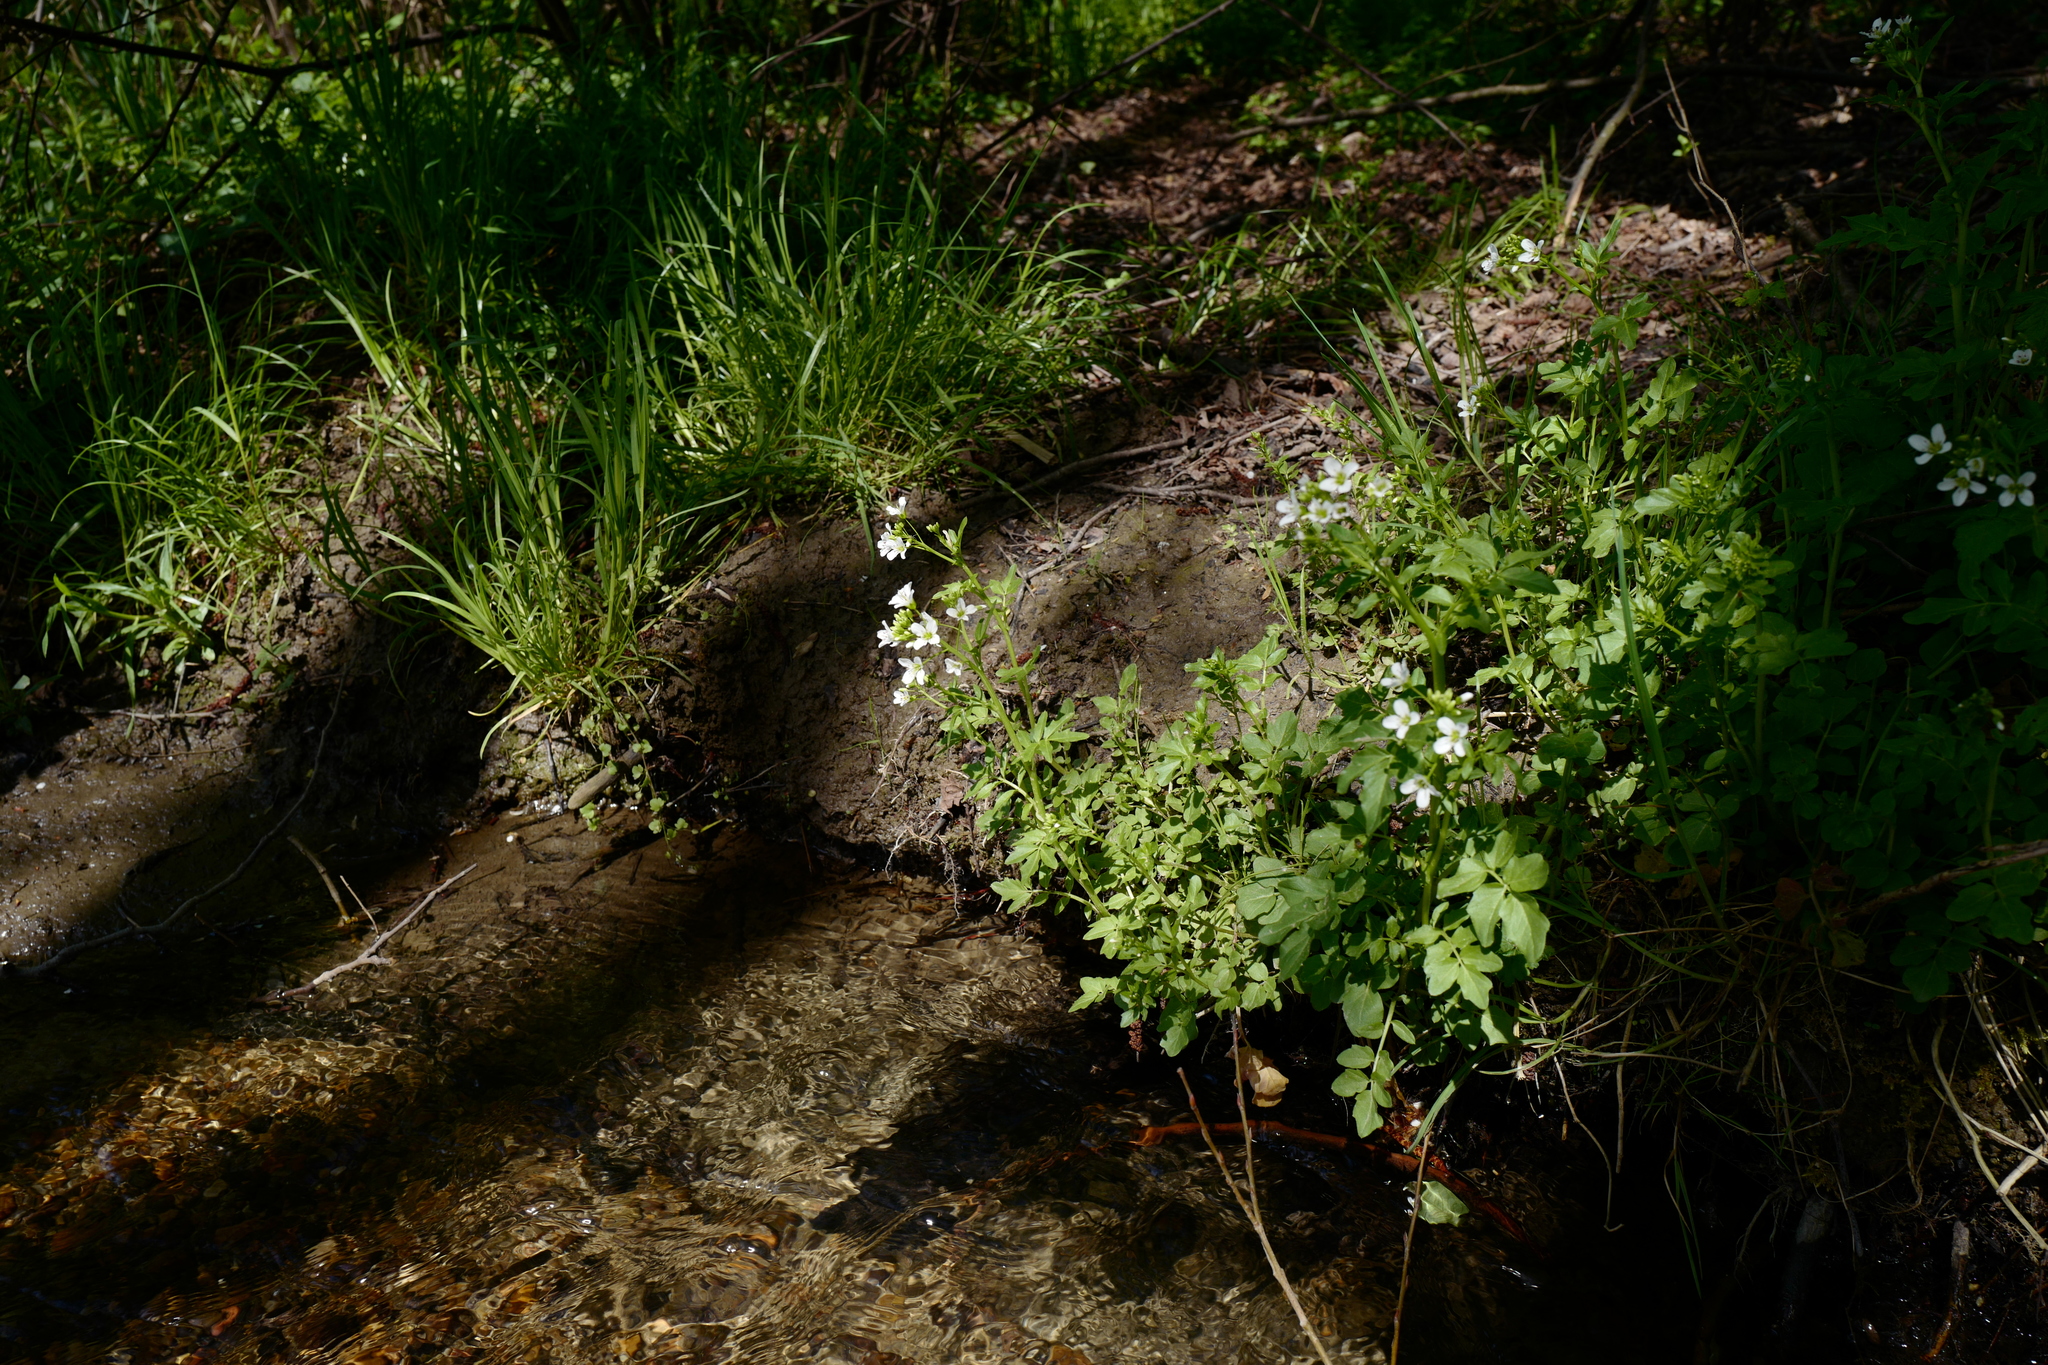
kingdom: Plantae
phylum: Tracheophyta
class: Magnoliopsida
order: Brassicales
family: Brassicaceae
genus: Cardamine
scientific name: Cardamine amara
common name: Large bitter-cress
